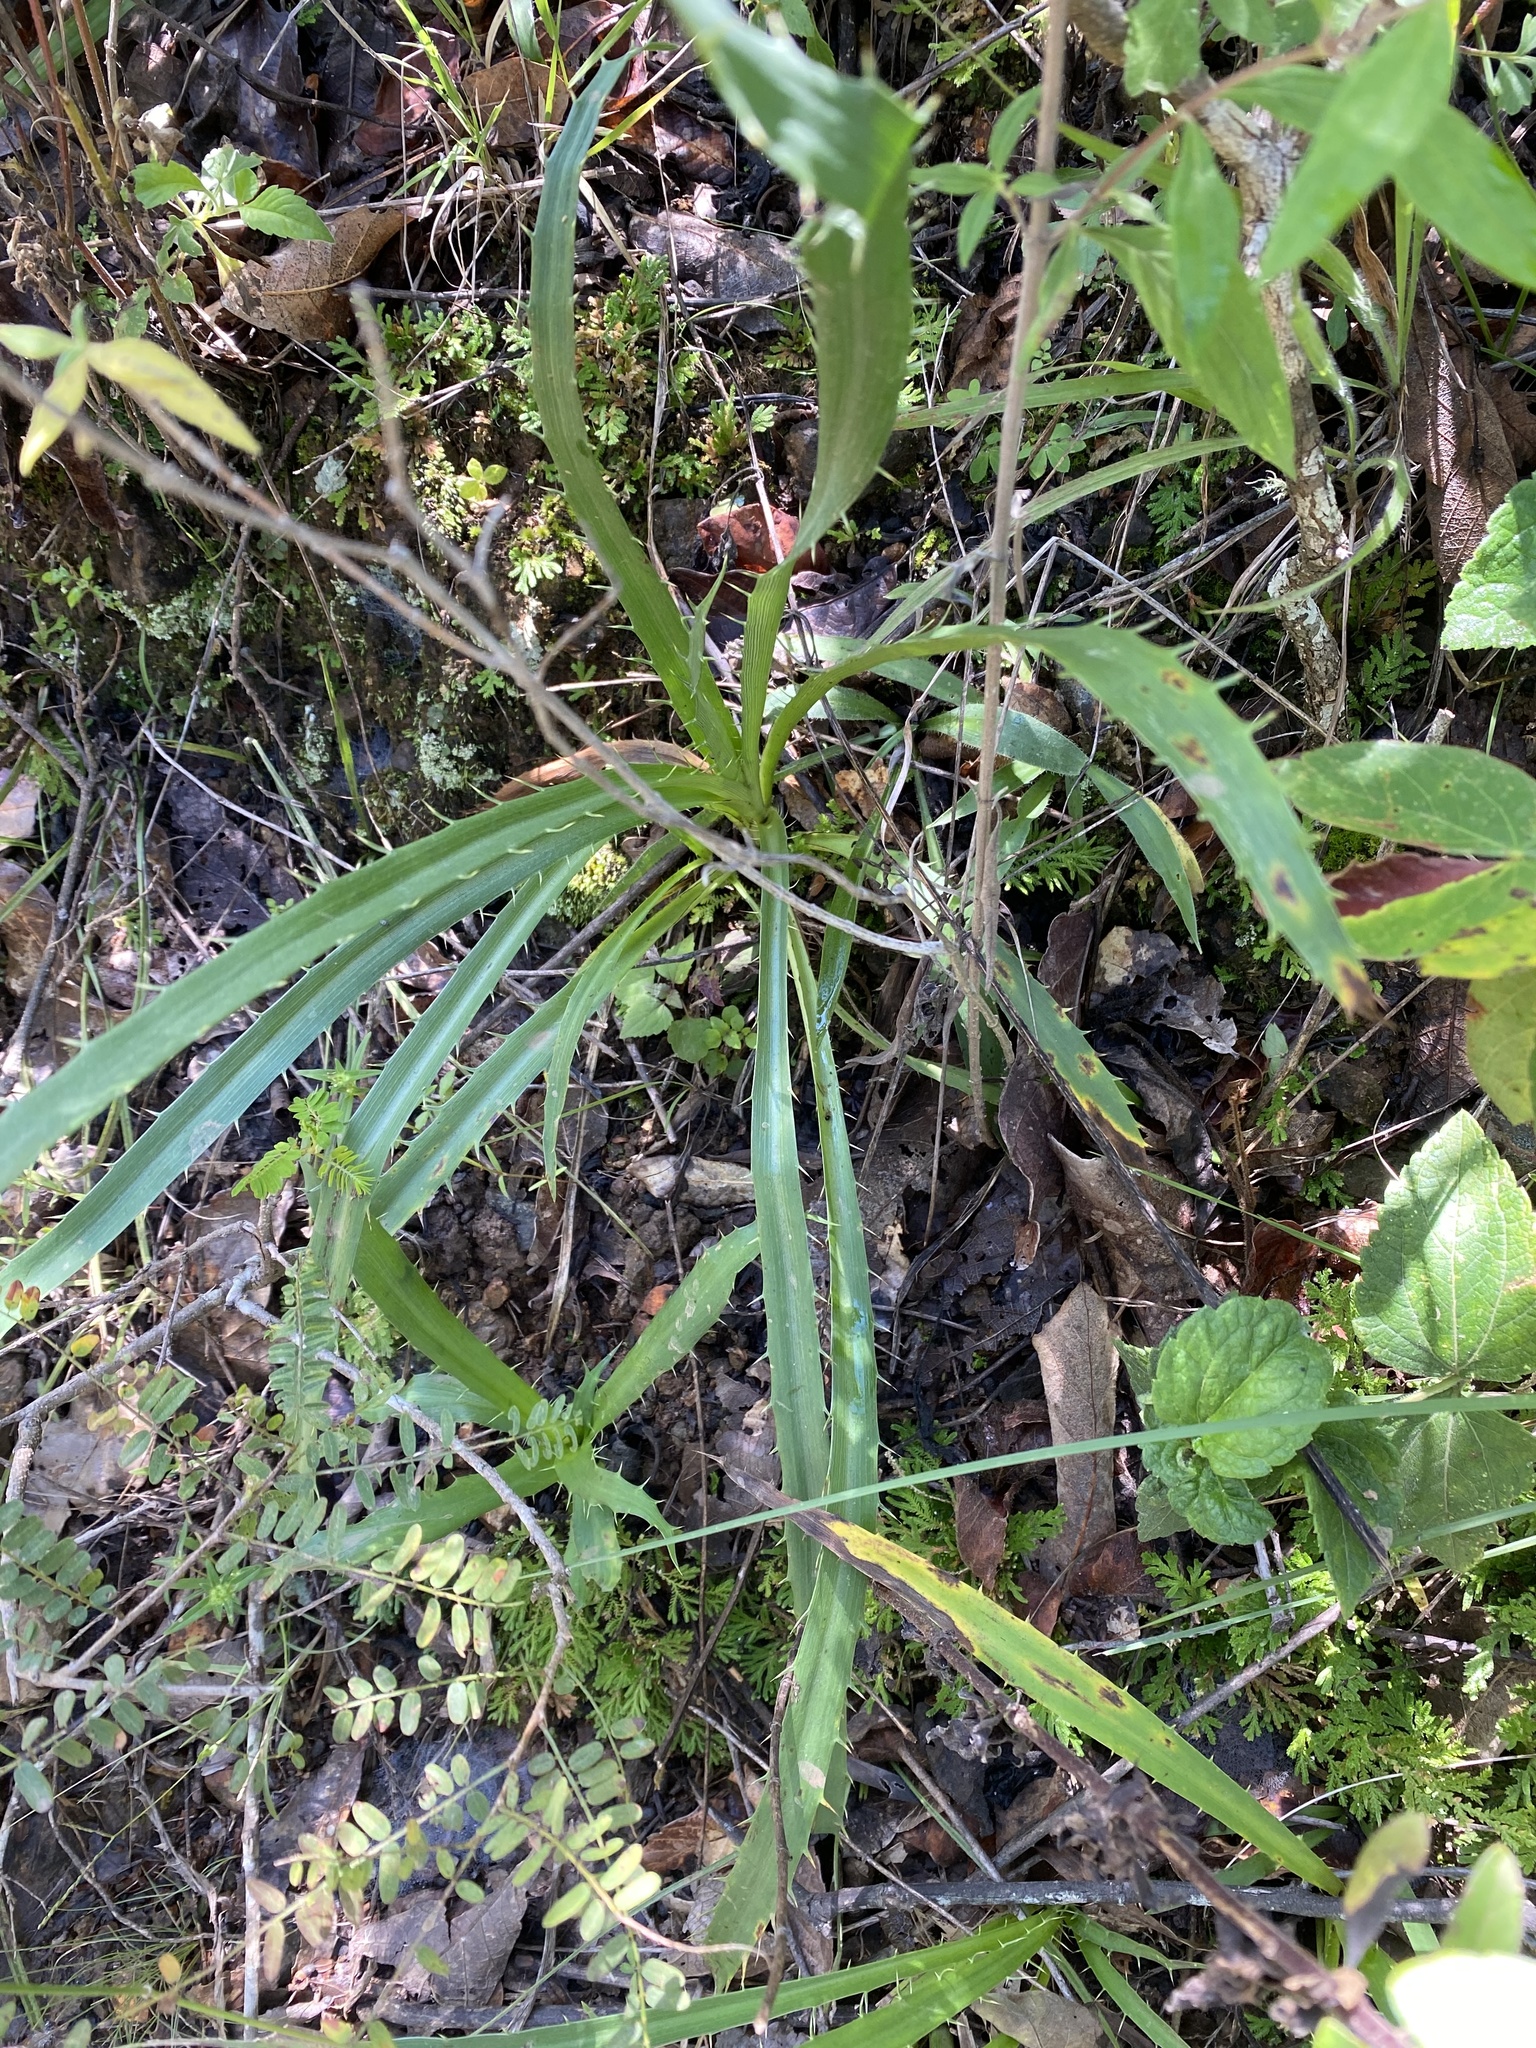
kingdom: Plantae
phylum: Tracheophyta
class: Magnoliopsida
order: Apiales
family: Apiaceae
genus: Eryngium
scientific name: Eryngium
